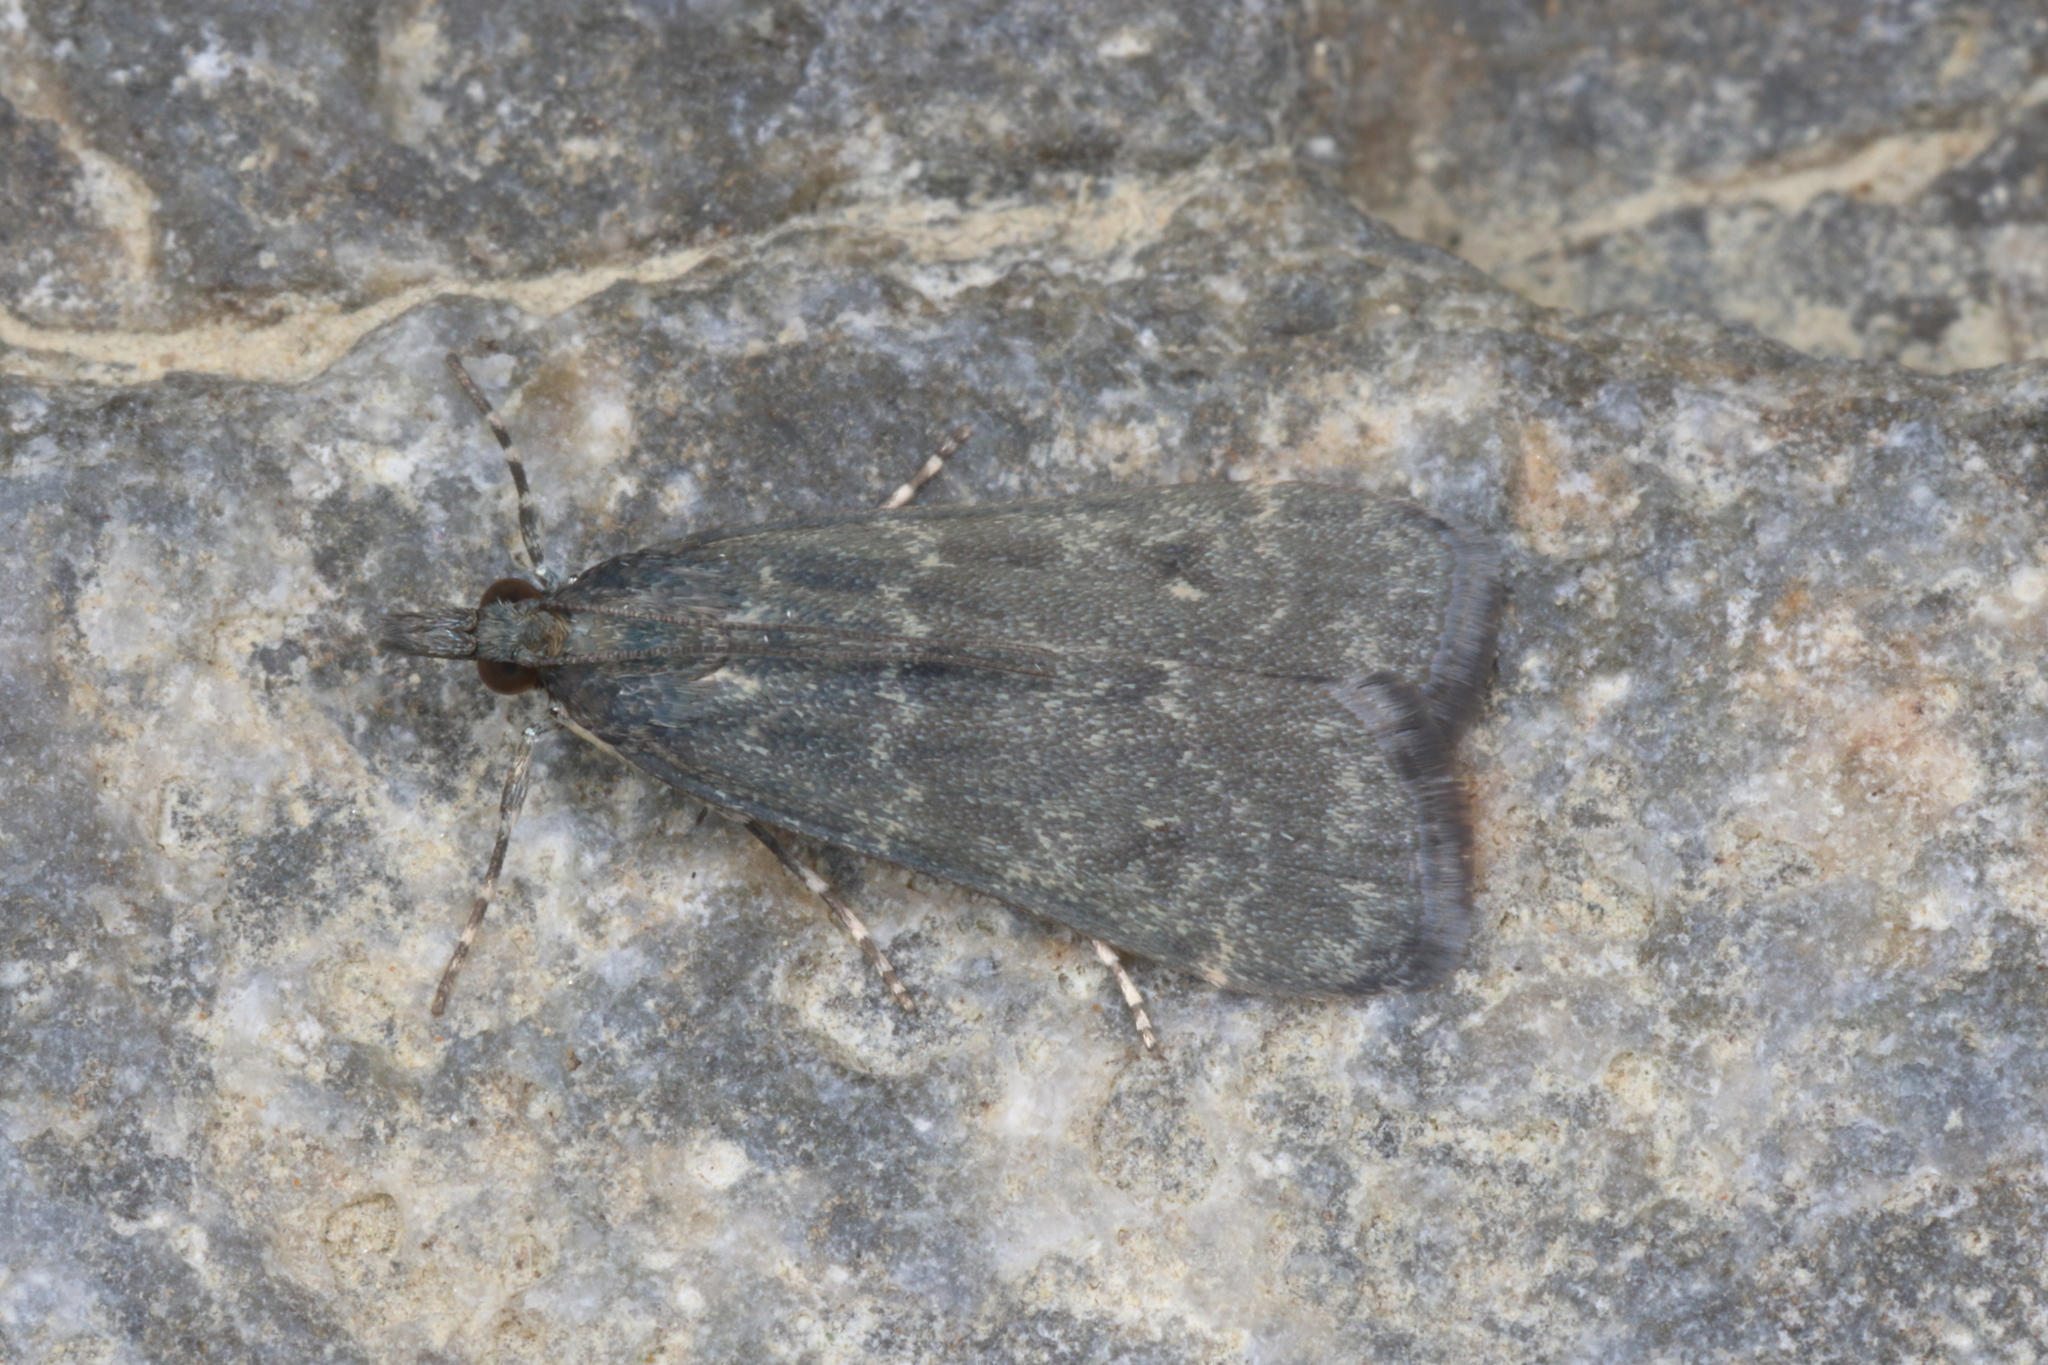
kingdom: Animalia
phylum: Arthropoda
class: Insecta
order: Lepidoptera
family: Crambidae
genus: Eudonia
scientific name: Eudonia cataxesta
